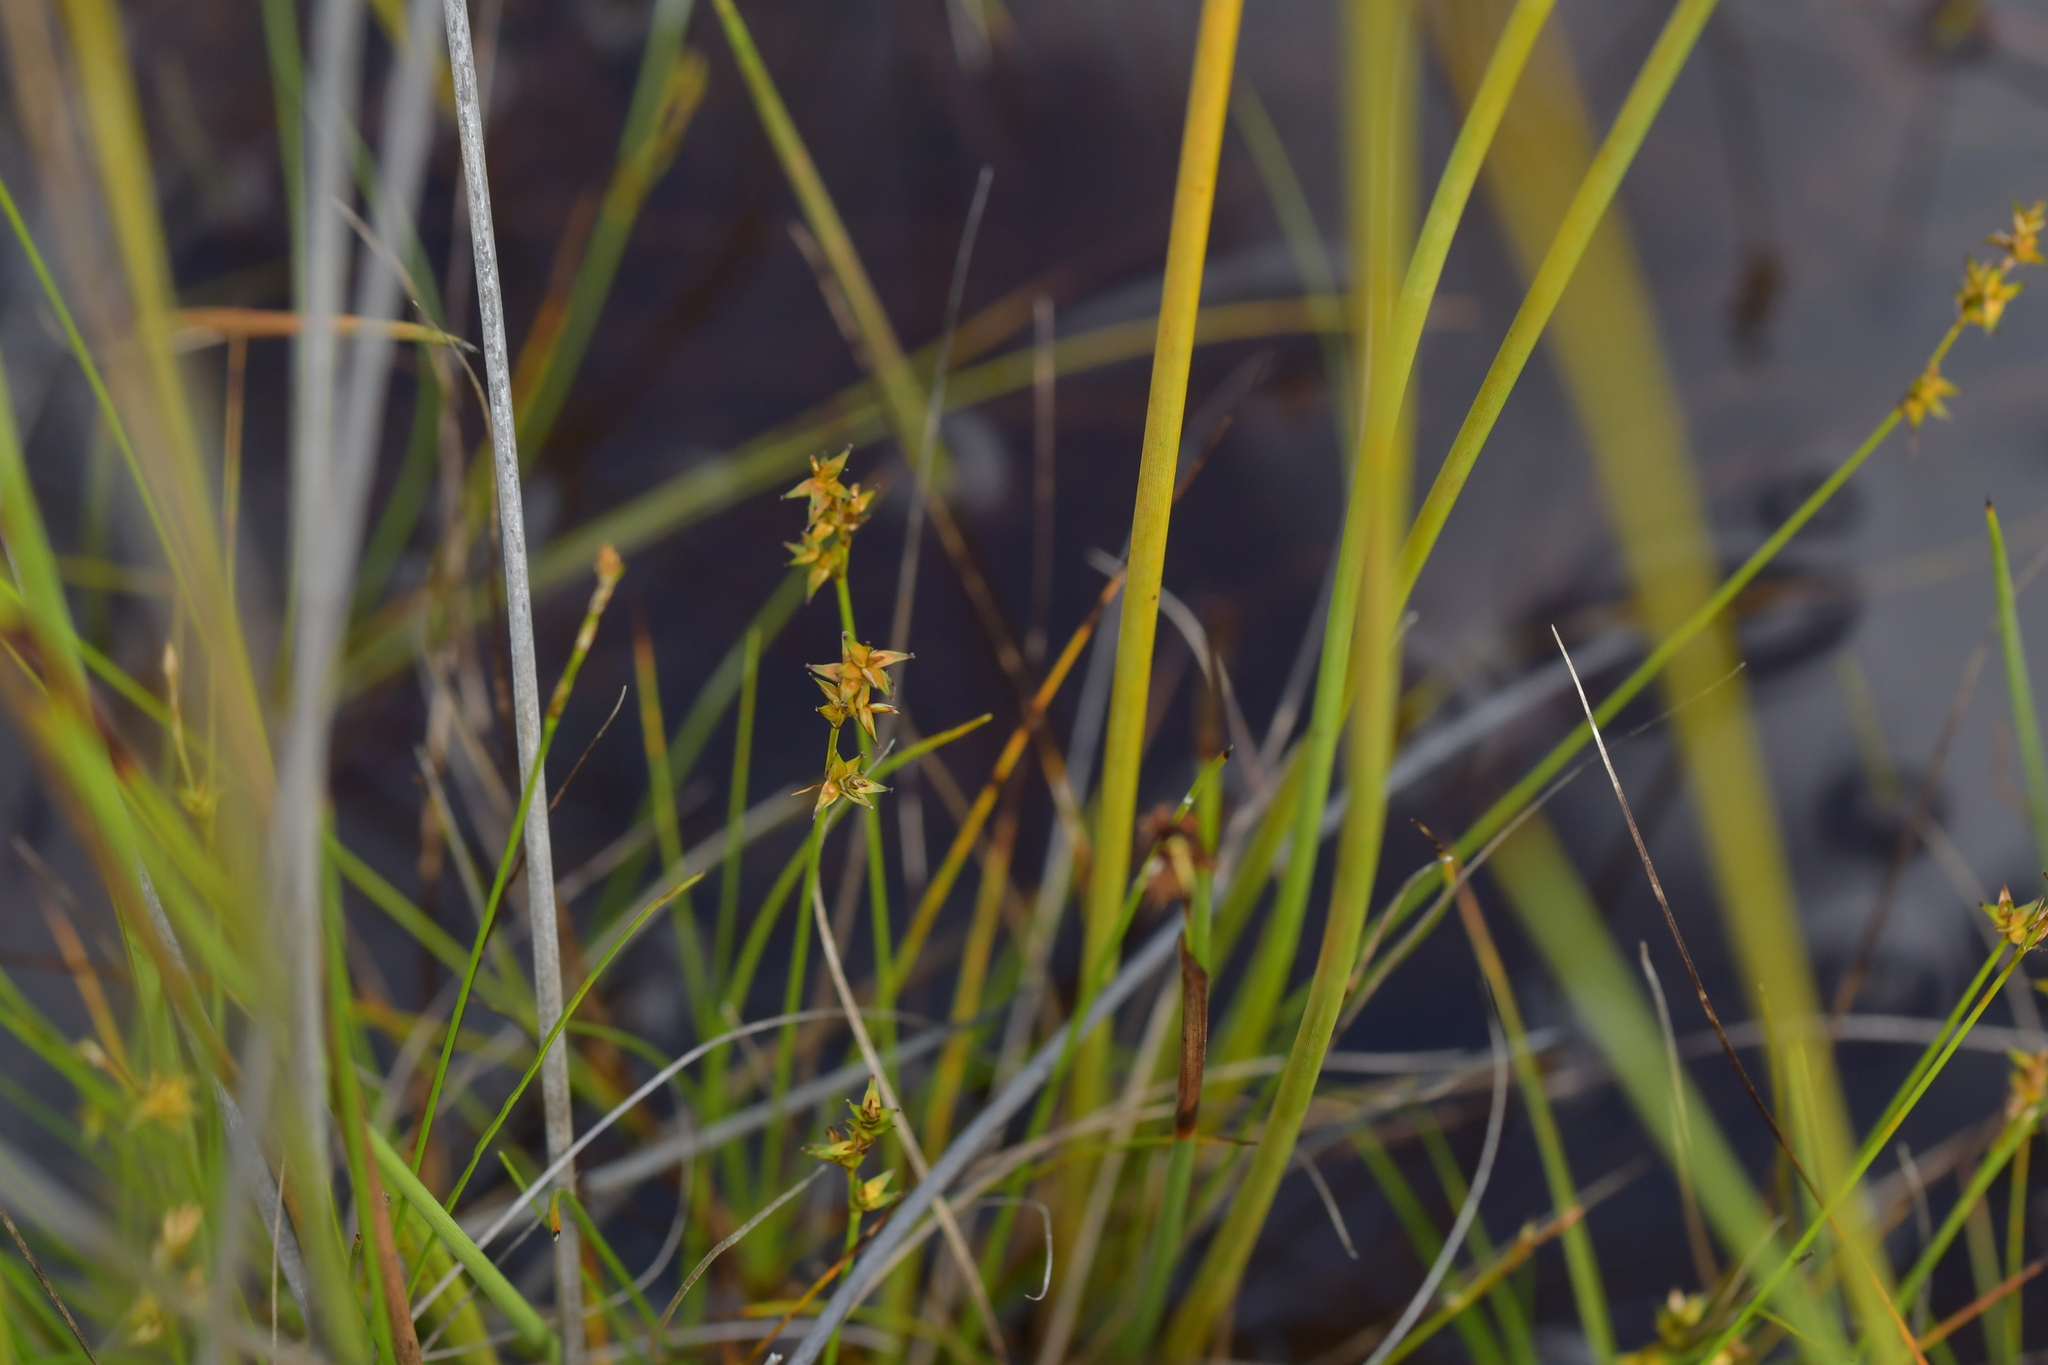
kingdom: Plantae
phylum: Tracheophyta
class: Liliopsida
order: Poales
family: Cyperaceae
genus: Carex
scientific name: Carex echinata
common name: Star sedge
